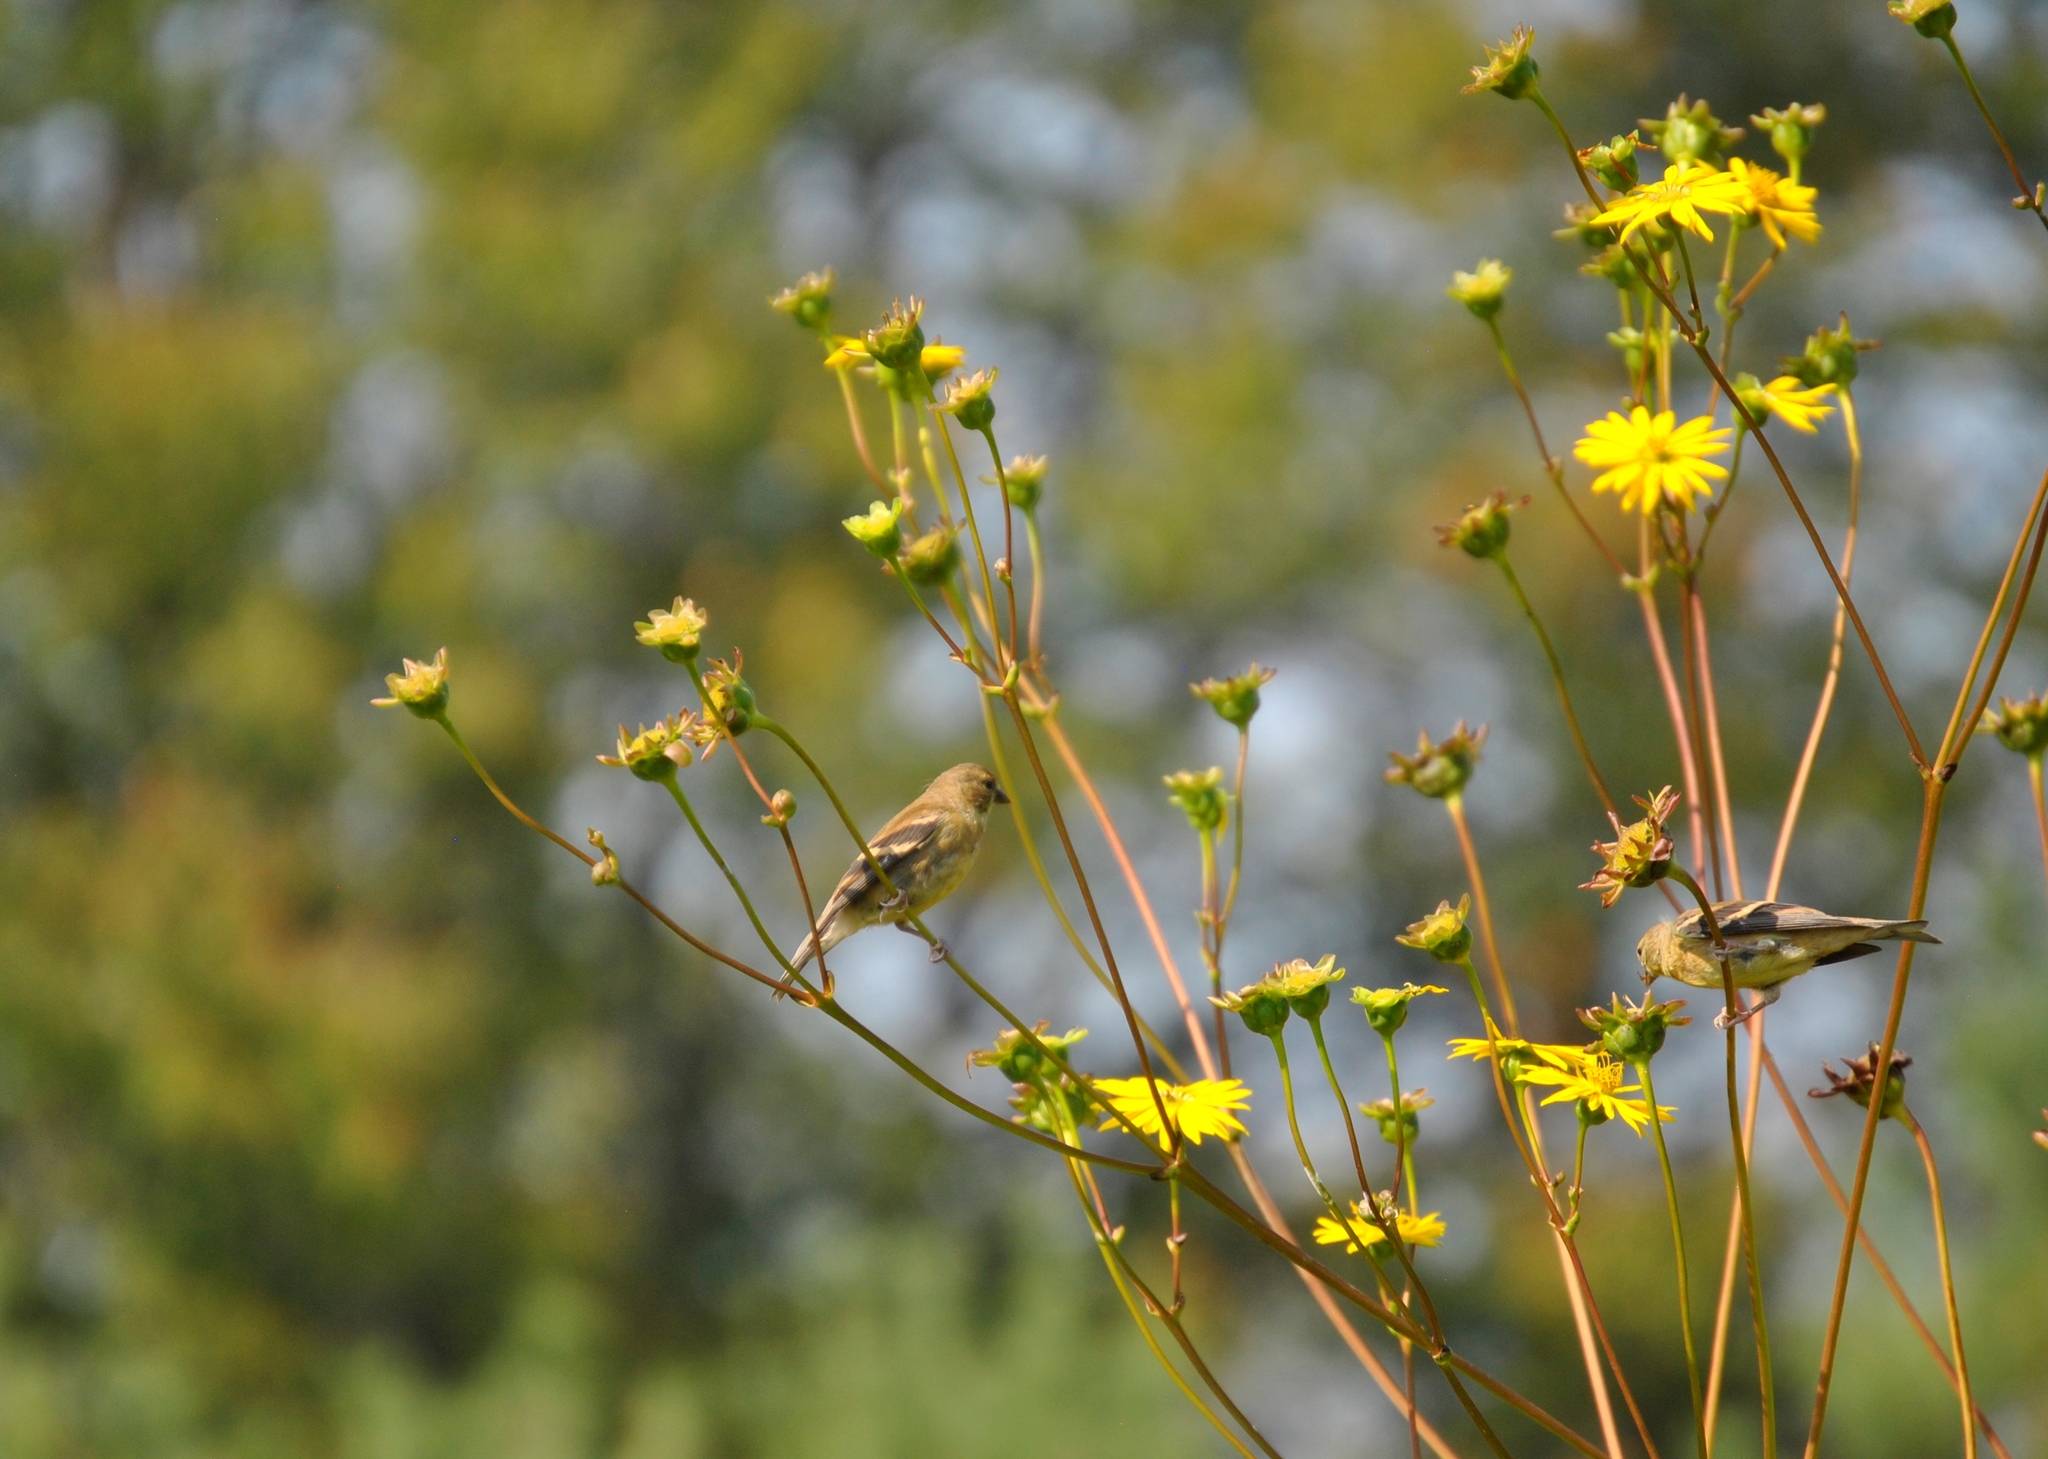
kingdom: Animalia
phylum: Chordata
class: Aves
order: Passeriformes
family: Fringillidae
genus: Spinus
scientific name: Spinus tristis
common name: American goldfinch
